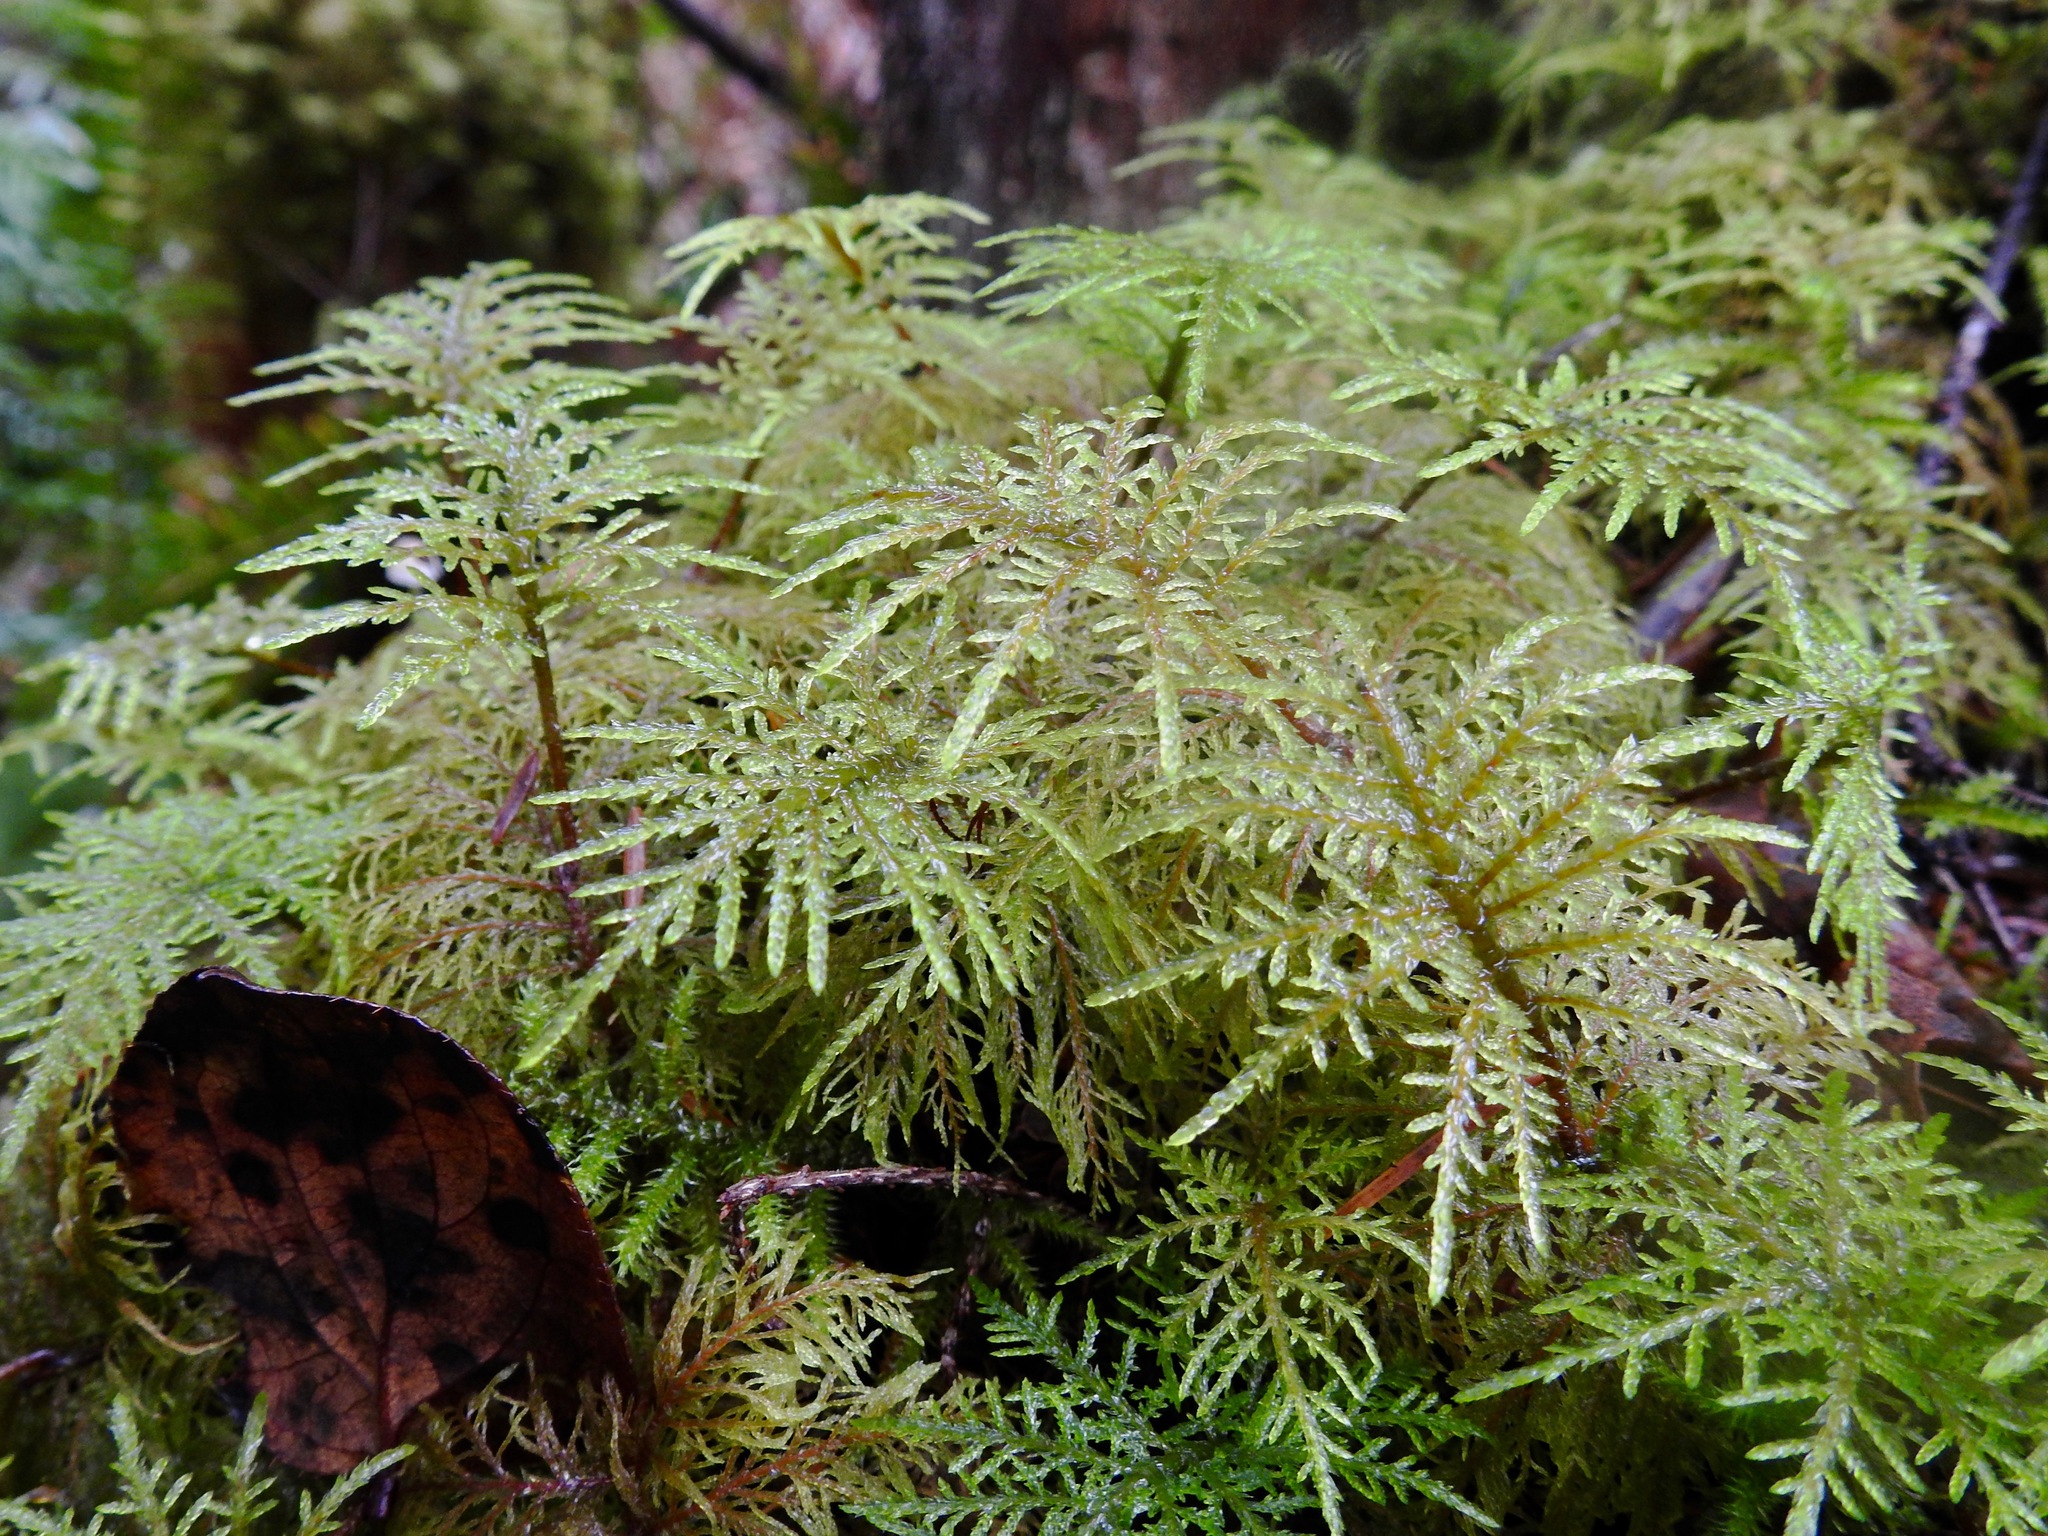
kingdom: Plantae
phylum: Bryophyta
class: Bryopsida
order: Hypnales
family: Hylocomiaceae
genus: Hylocomium
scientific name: Hylocomium splendens
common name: Stairstep moss
